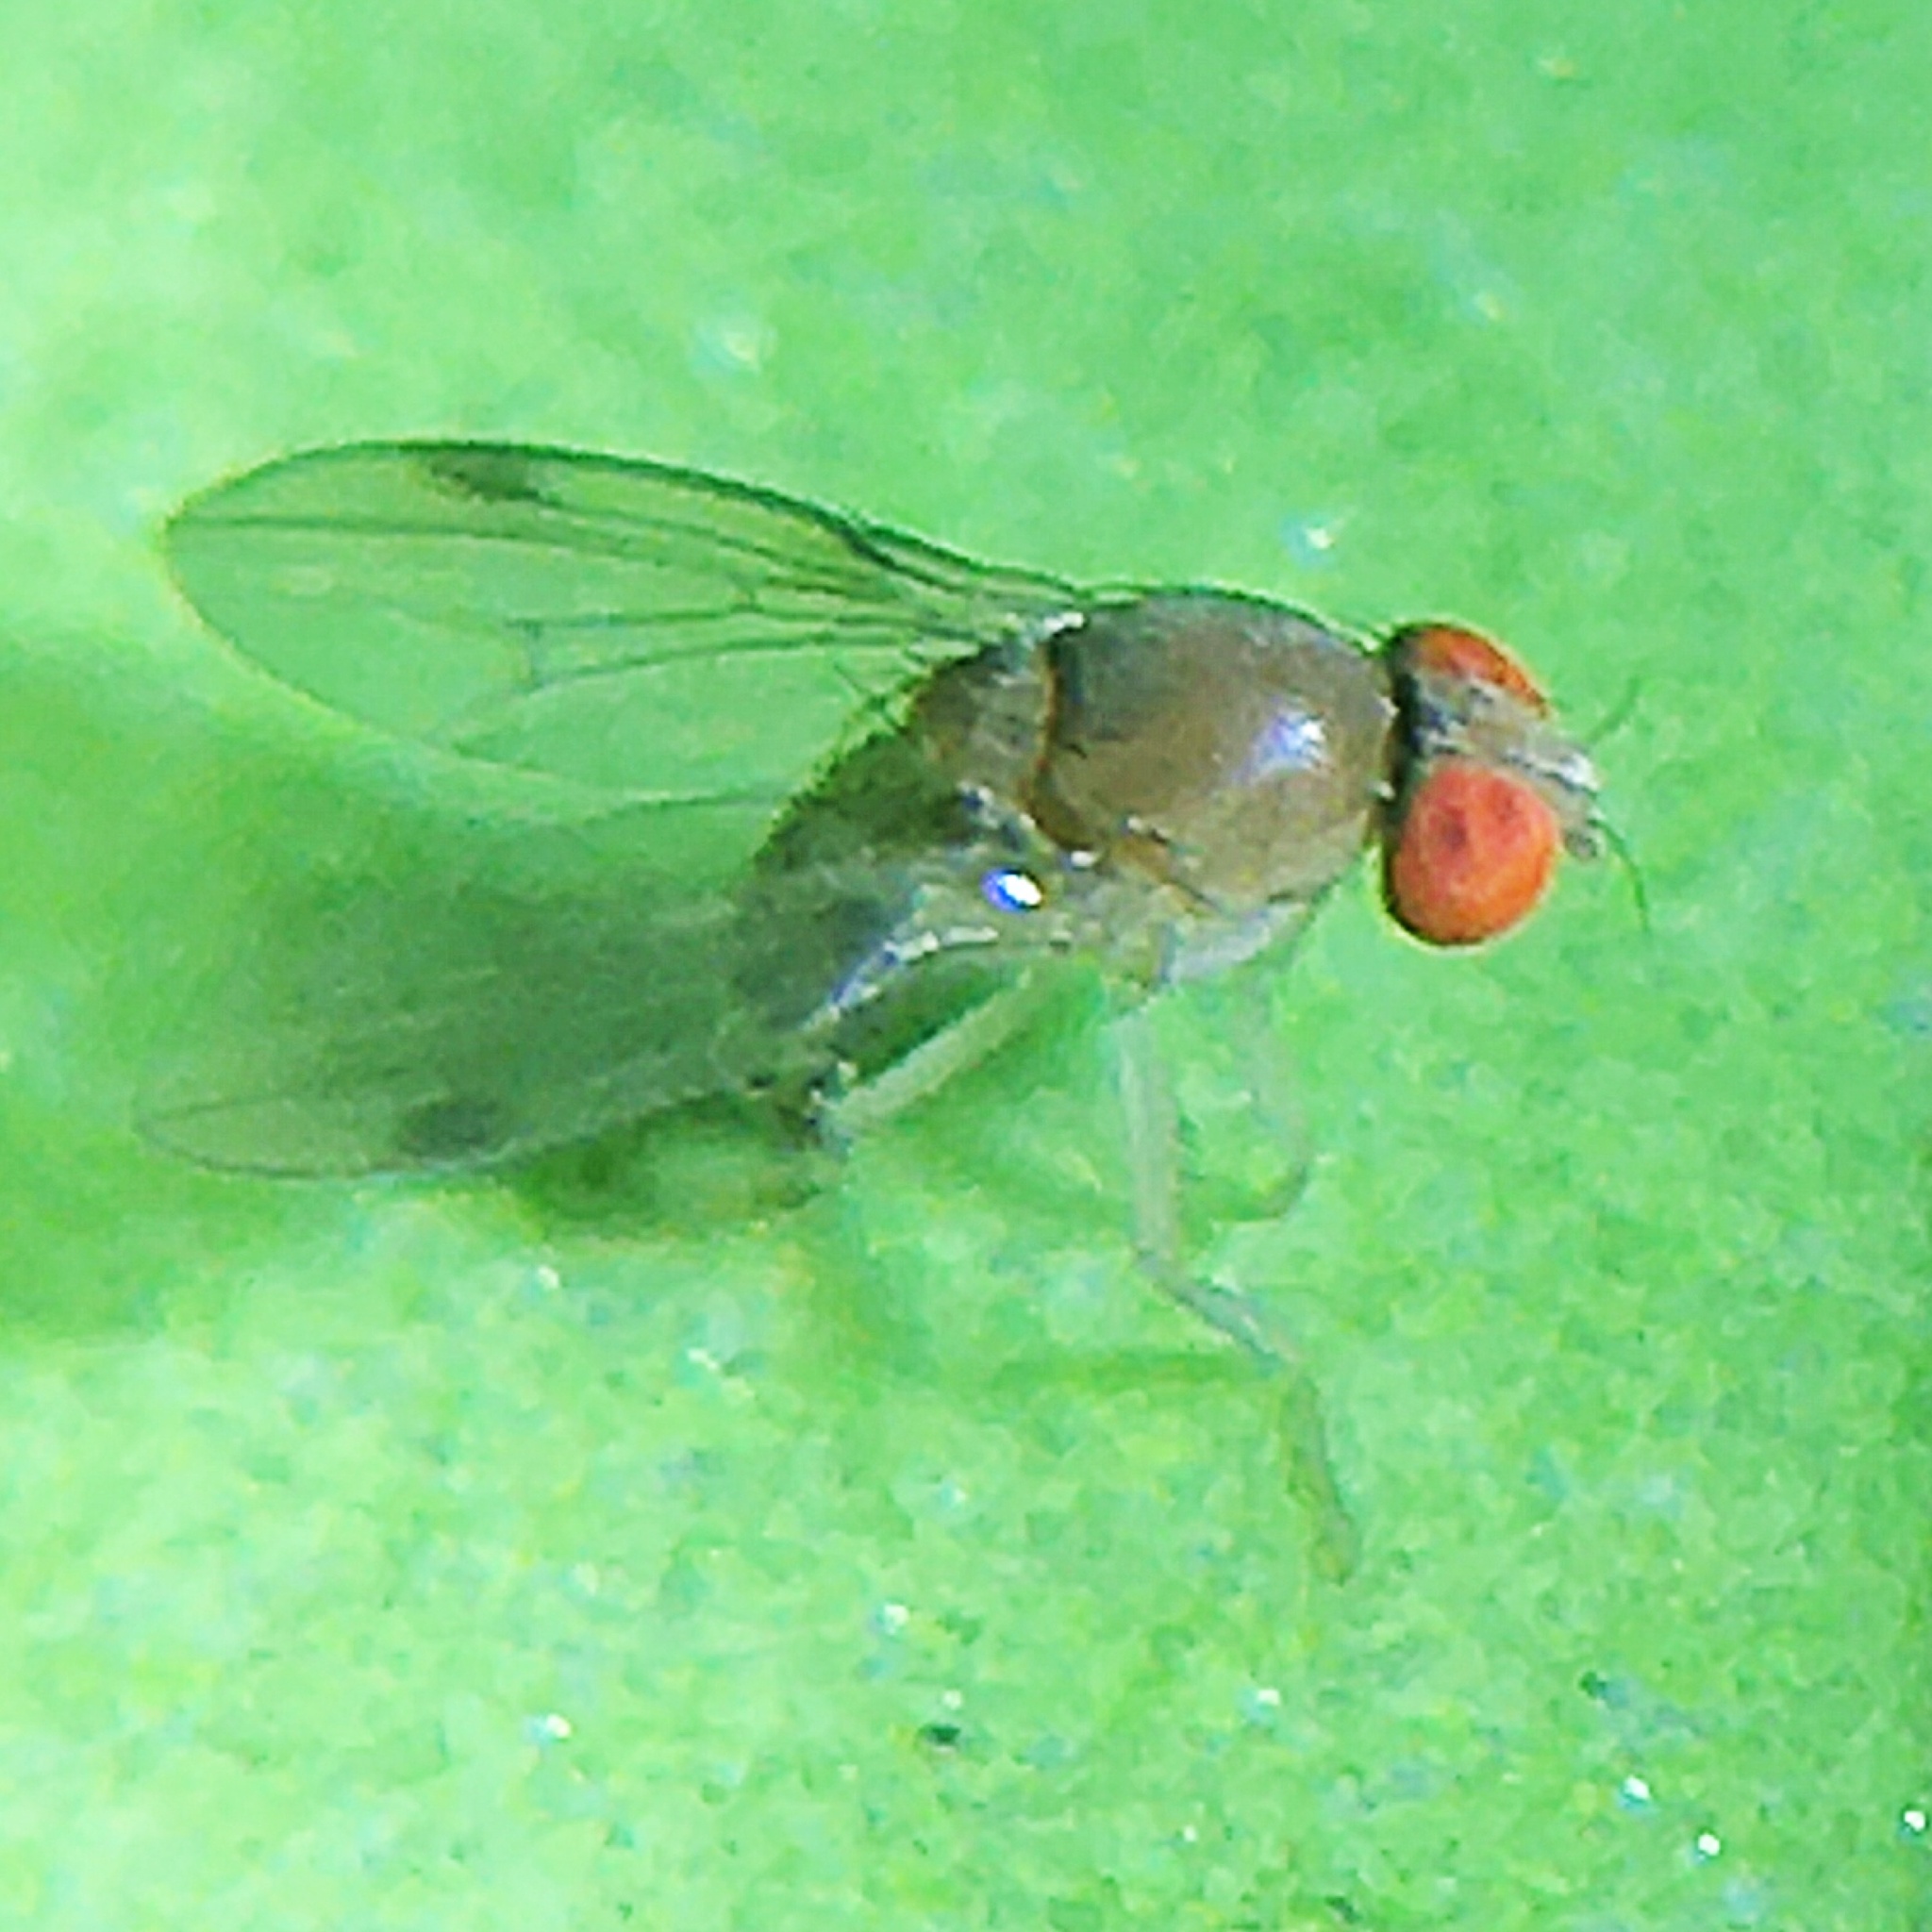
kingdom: Animalia
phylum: Arthropoda
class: Insecta
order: Diptera
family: Drosophilidae
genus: Leucophenga
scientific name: Leucophenga varia
